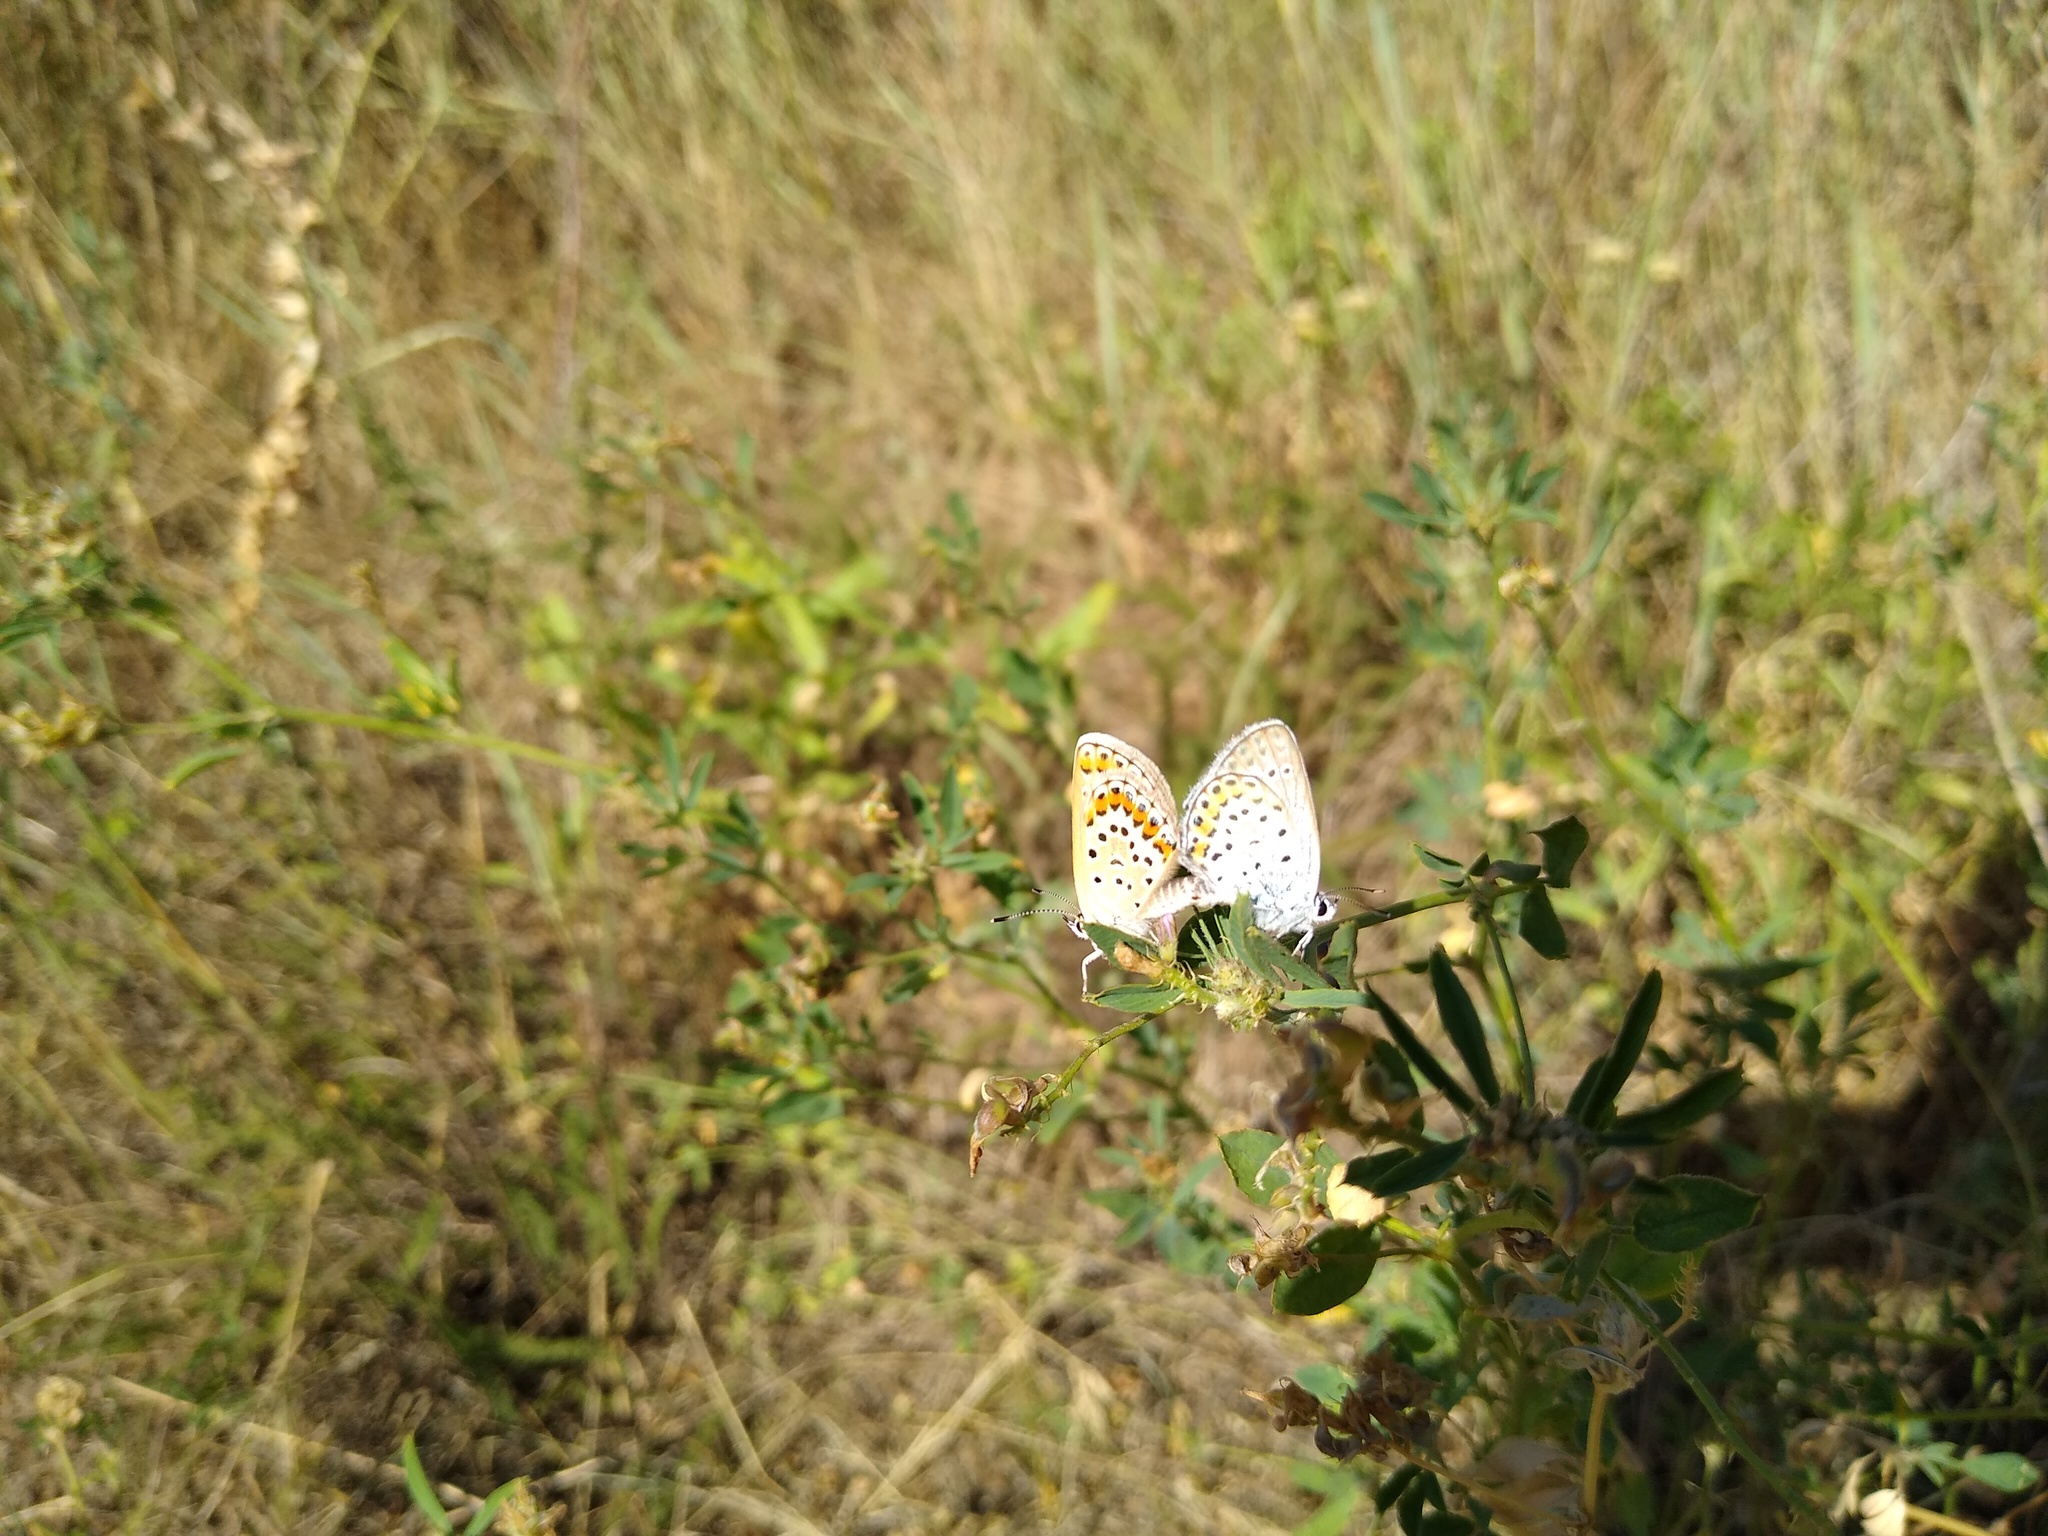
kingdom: Animalia
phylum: Arthropoda
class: Insecta
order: Lepidoptera
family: Lycaenidae
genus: Plebejus
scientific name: Plebejus argus
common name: Silver-studded blue
